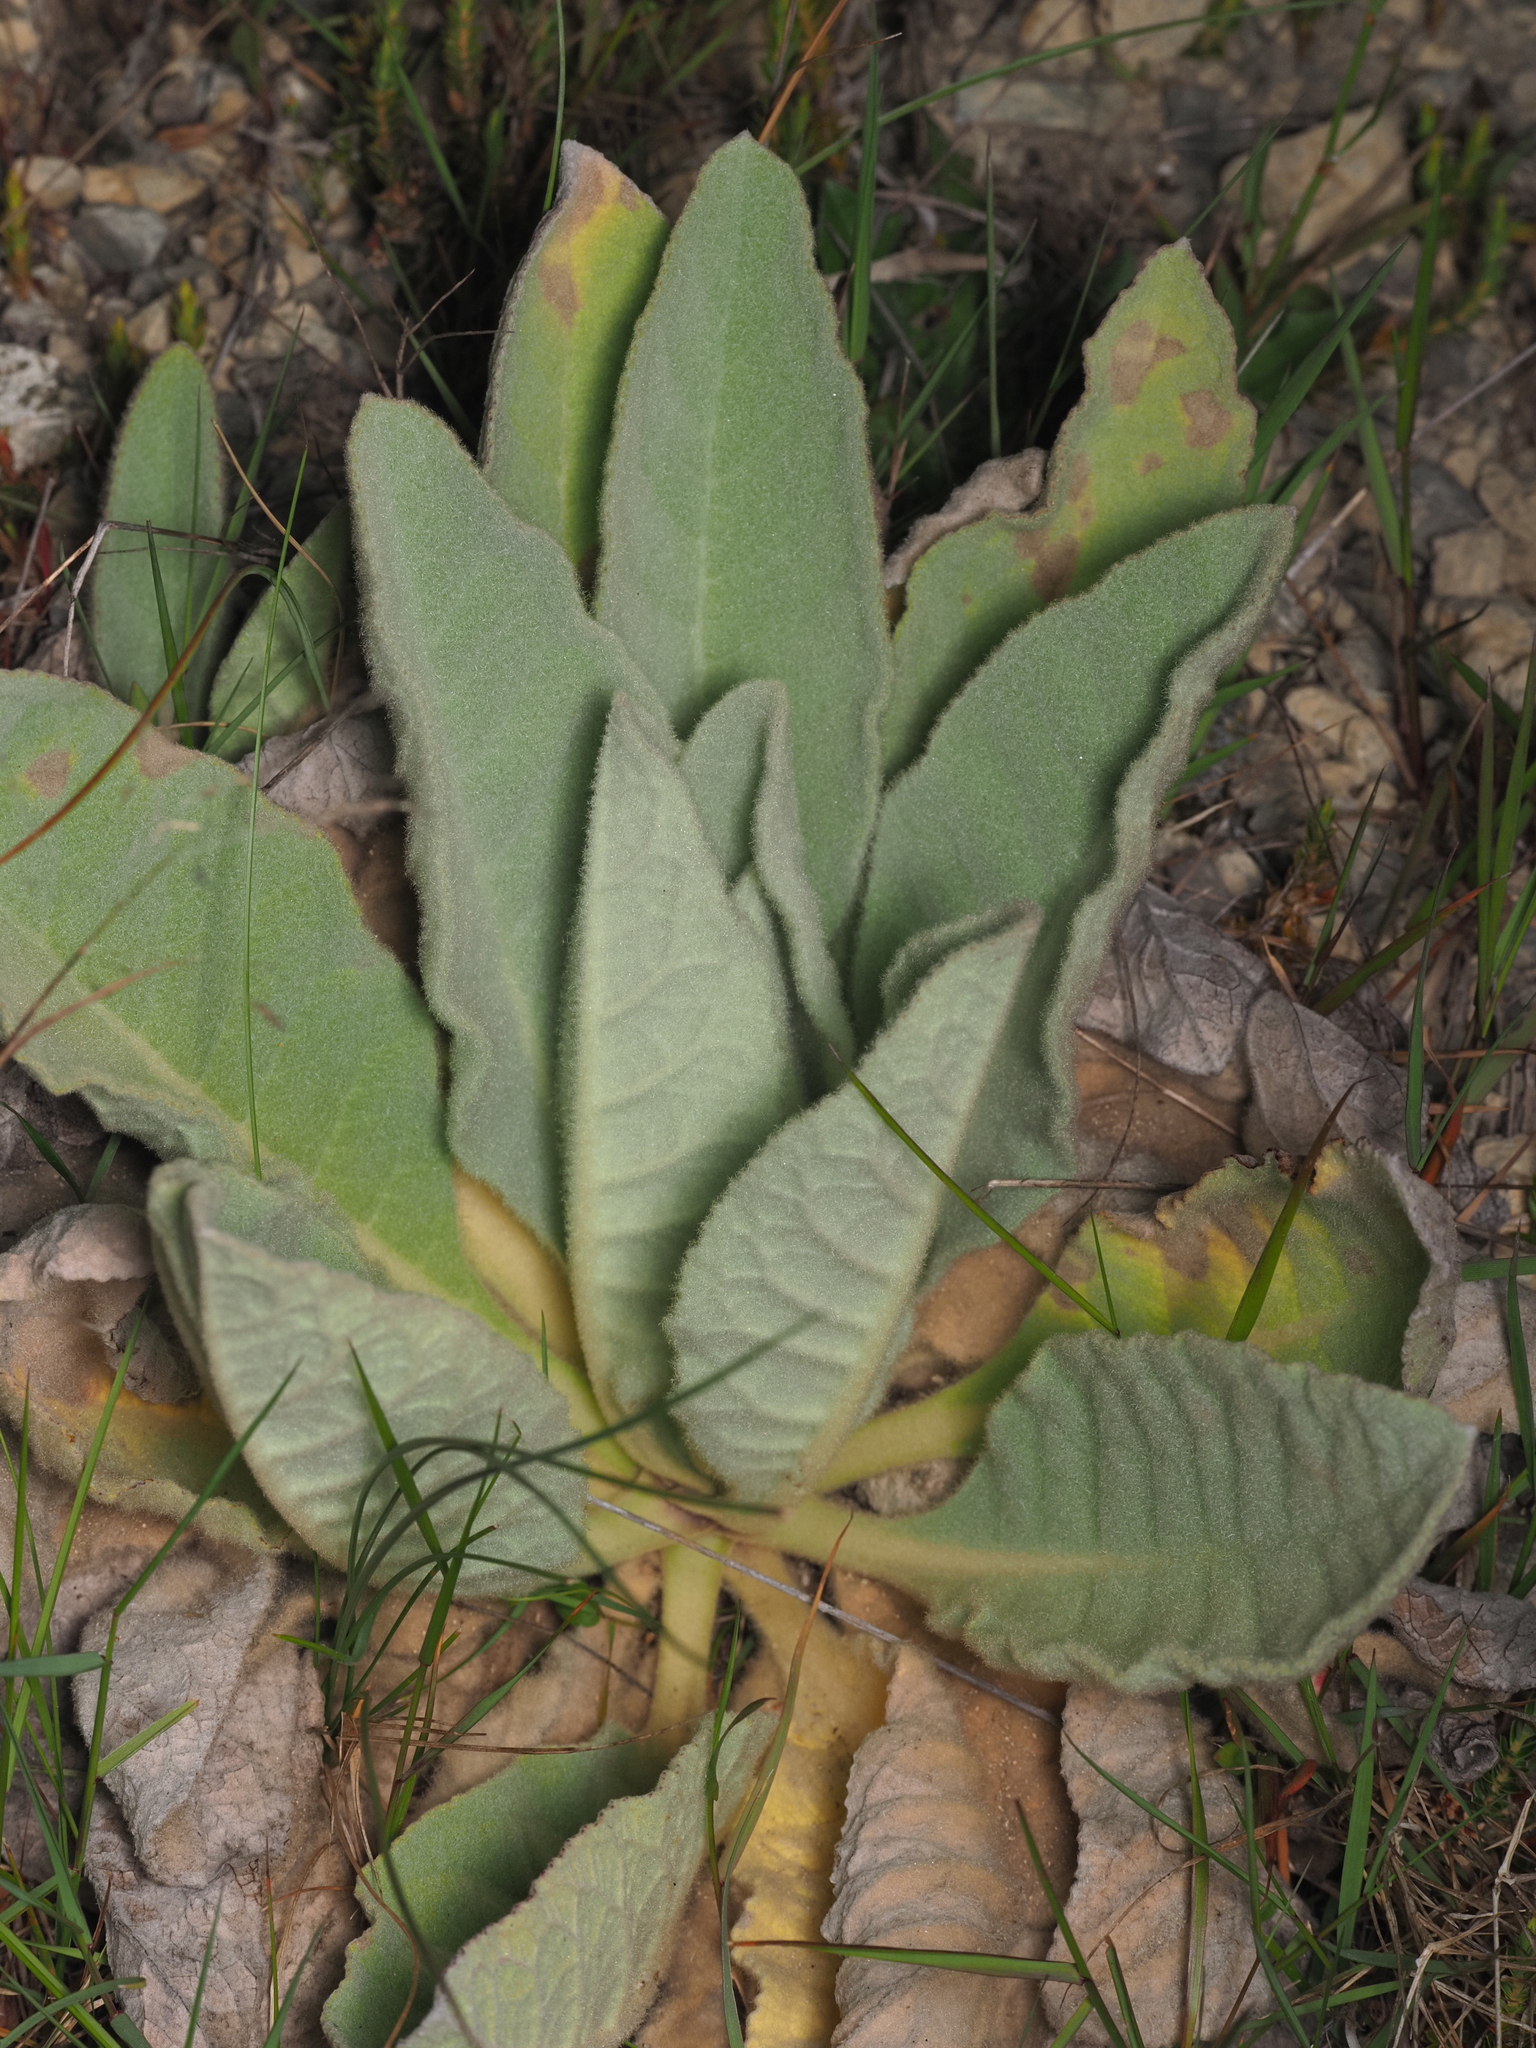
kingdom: Plantae
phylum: Tracheophyta
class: Magnoliopsida
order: Lamiales
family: Scrophulariaceae
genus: Verbascum
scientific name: Verbascum thapsus
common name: Common mullein
